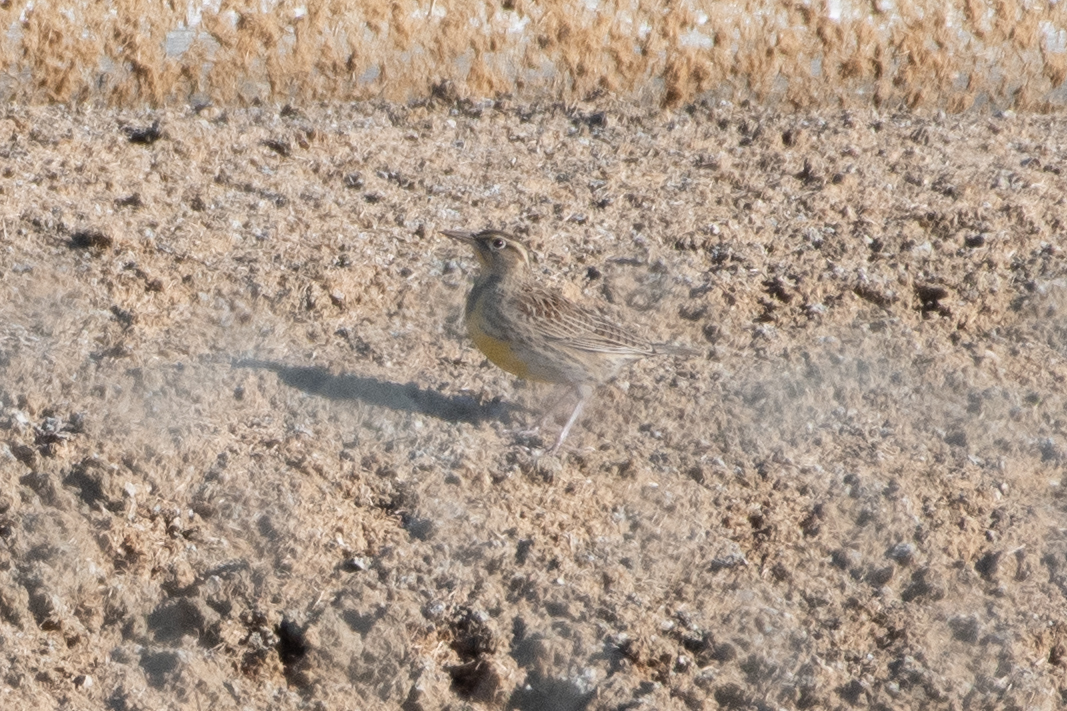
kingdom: Animalia
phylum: Chordata
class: Aves
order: Passeriformes
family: Icteridae
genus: Sturnella
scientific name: Sturnella neglecta
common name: Western meadowlark
